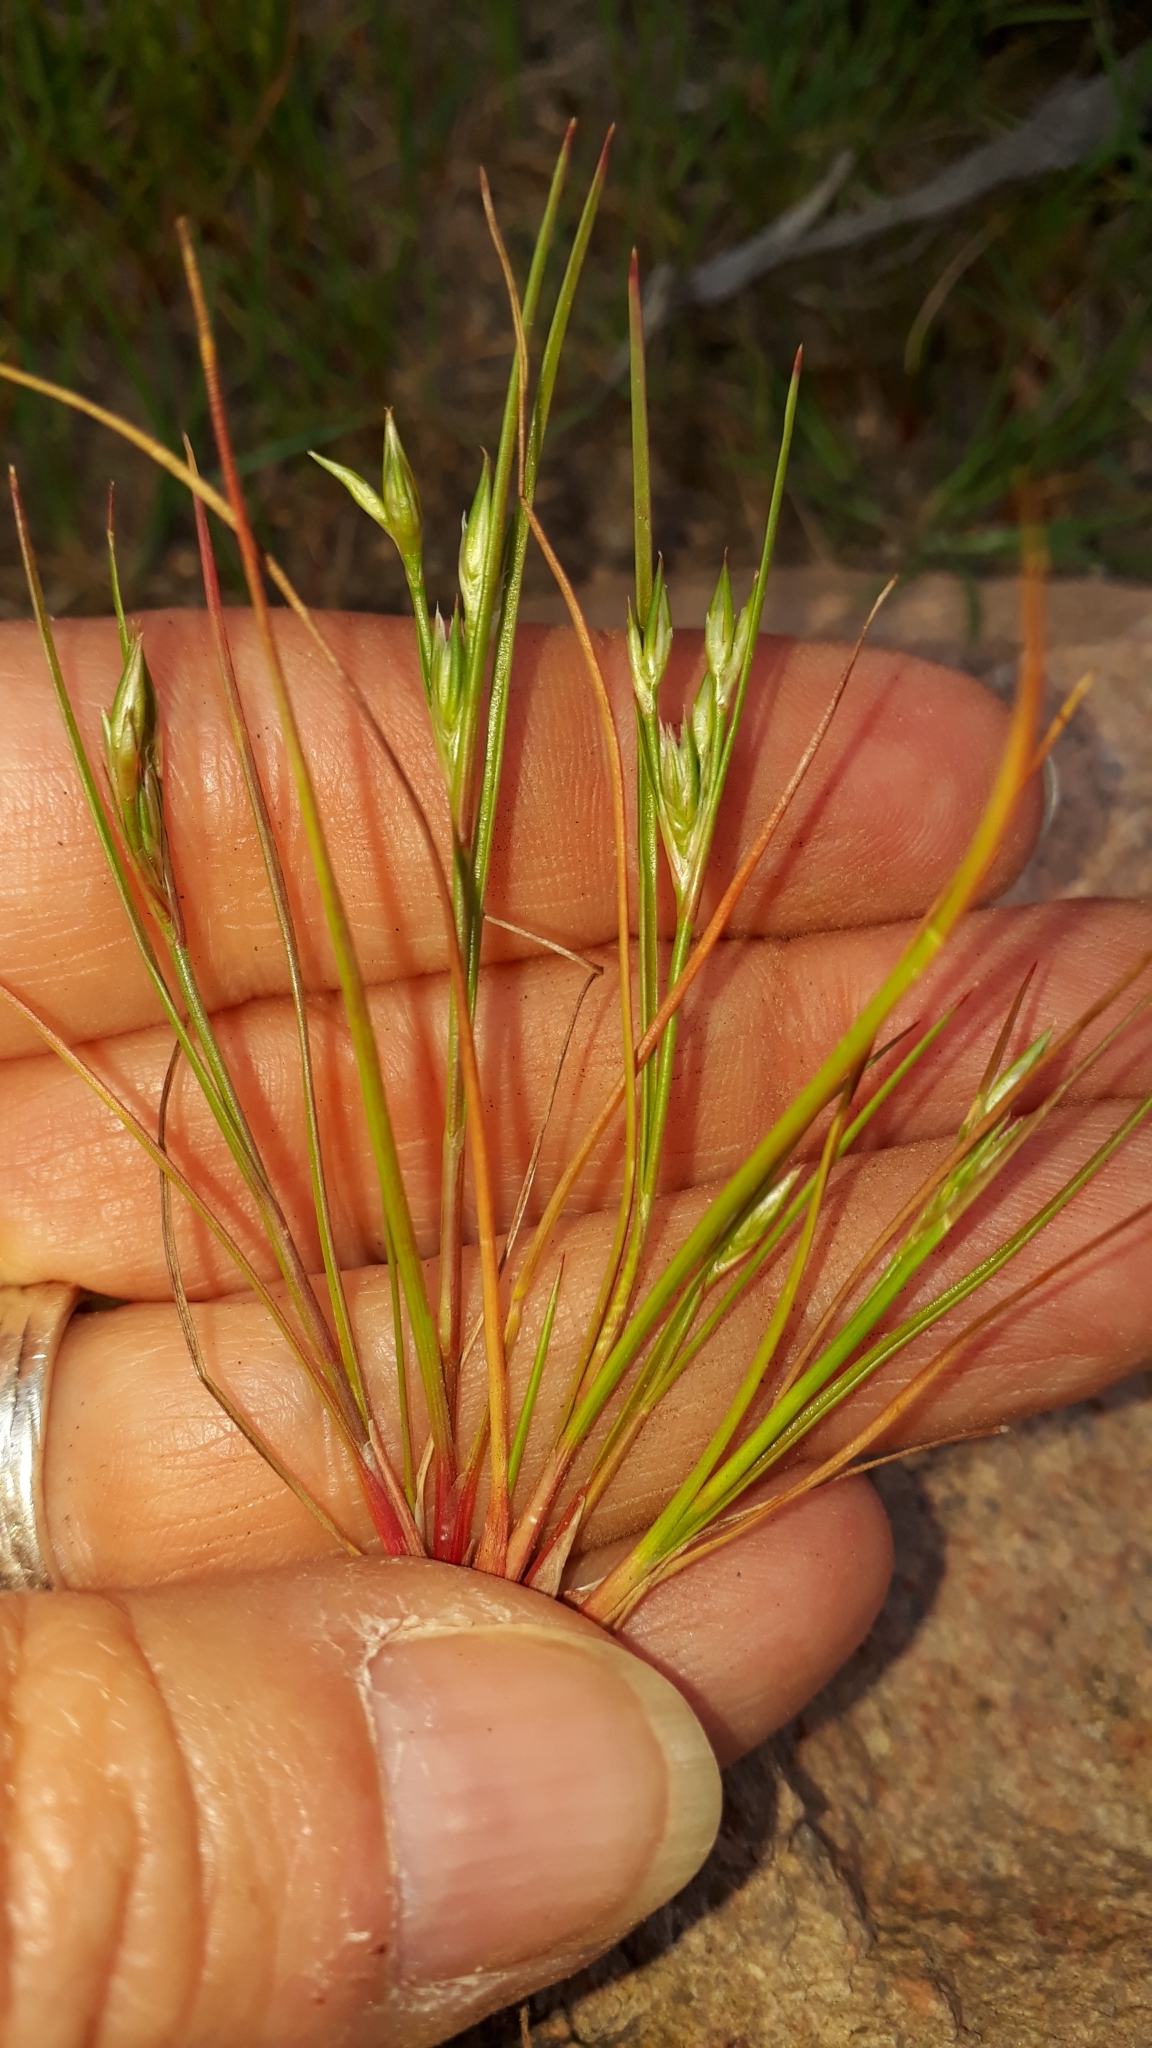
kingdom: Plantae
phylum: Tracheophyta
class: Liliopsida
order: Poales
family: Juncaceae
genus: Juncus
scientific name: Juncus bufonius
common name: Toad rush
